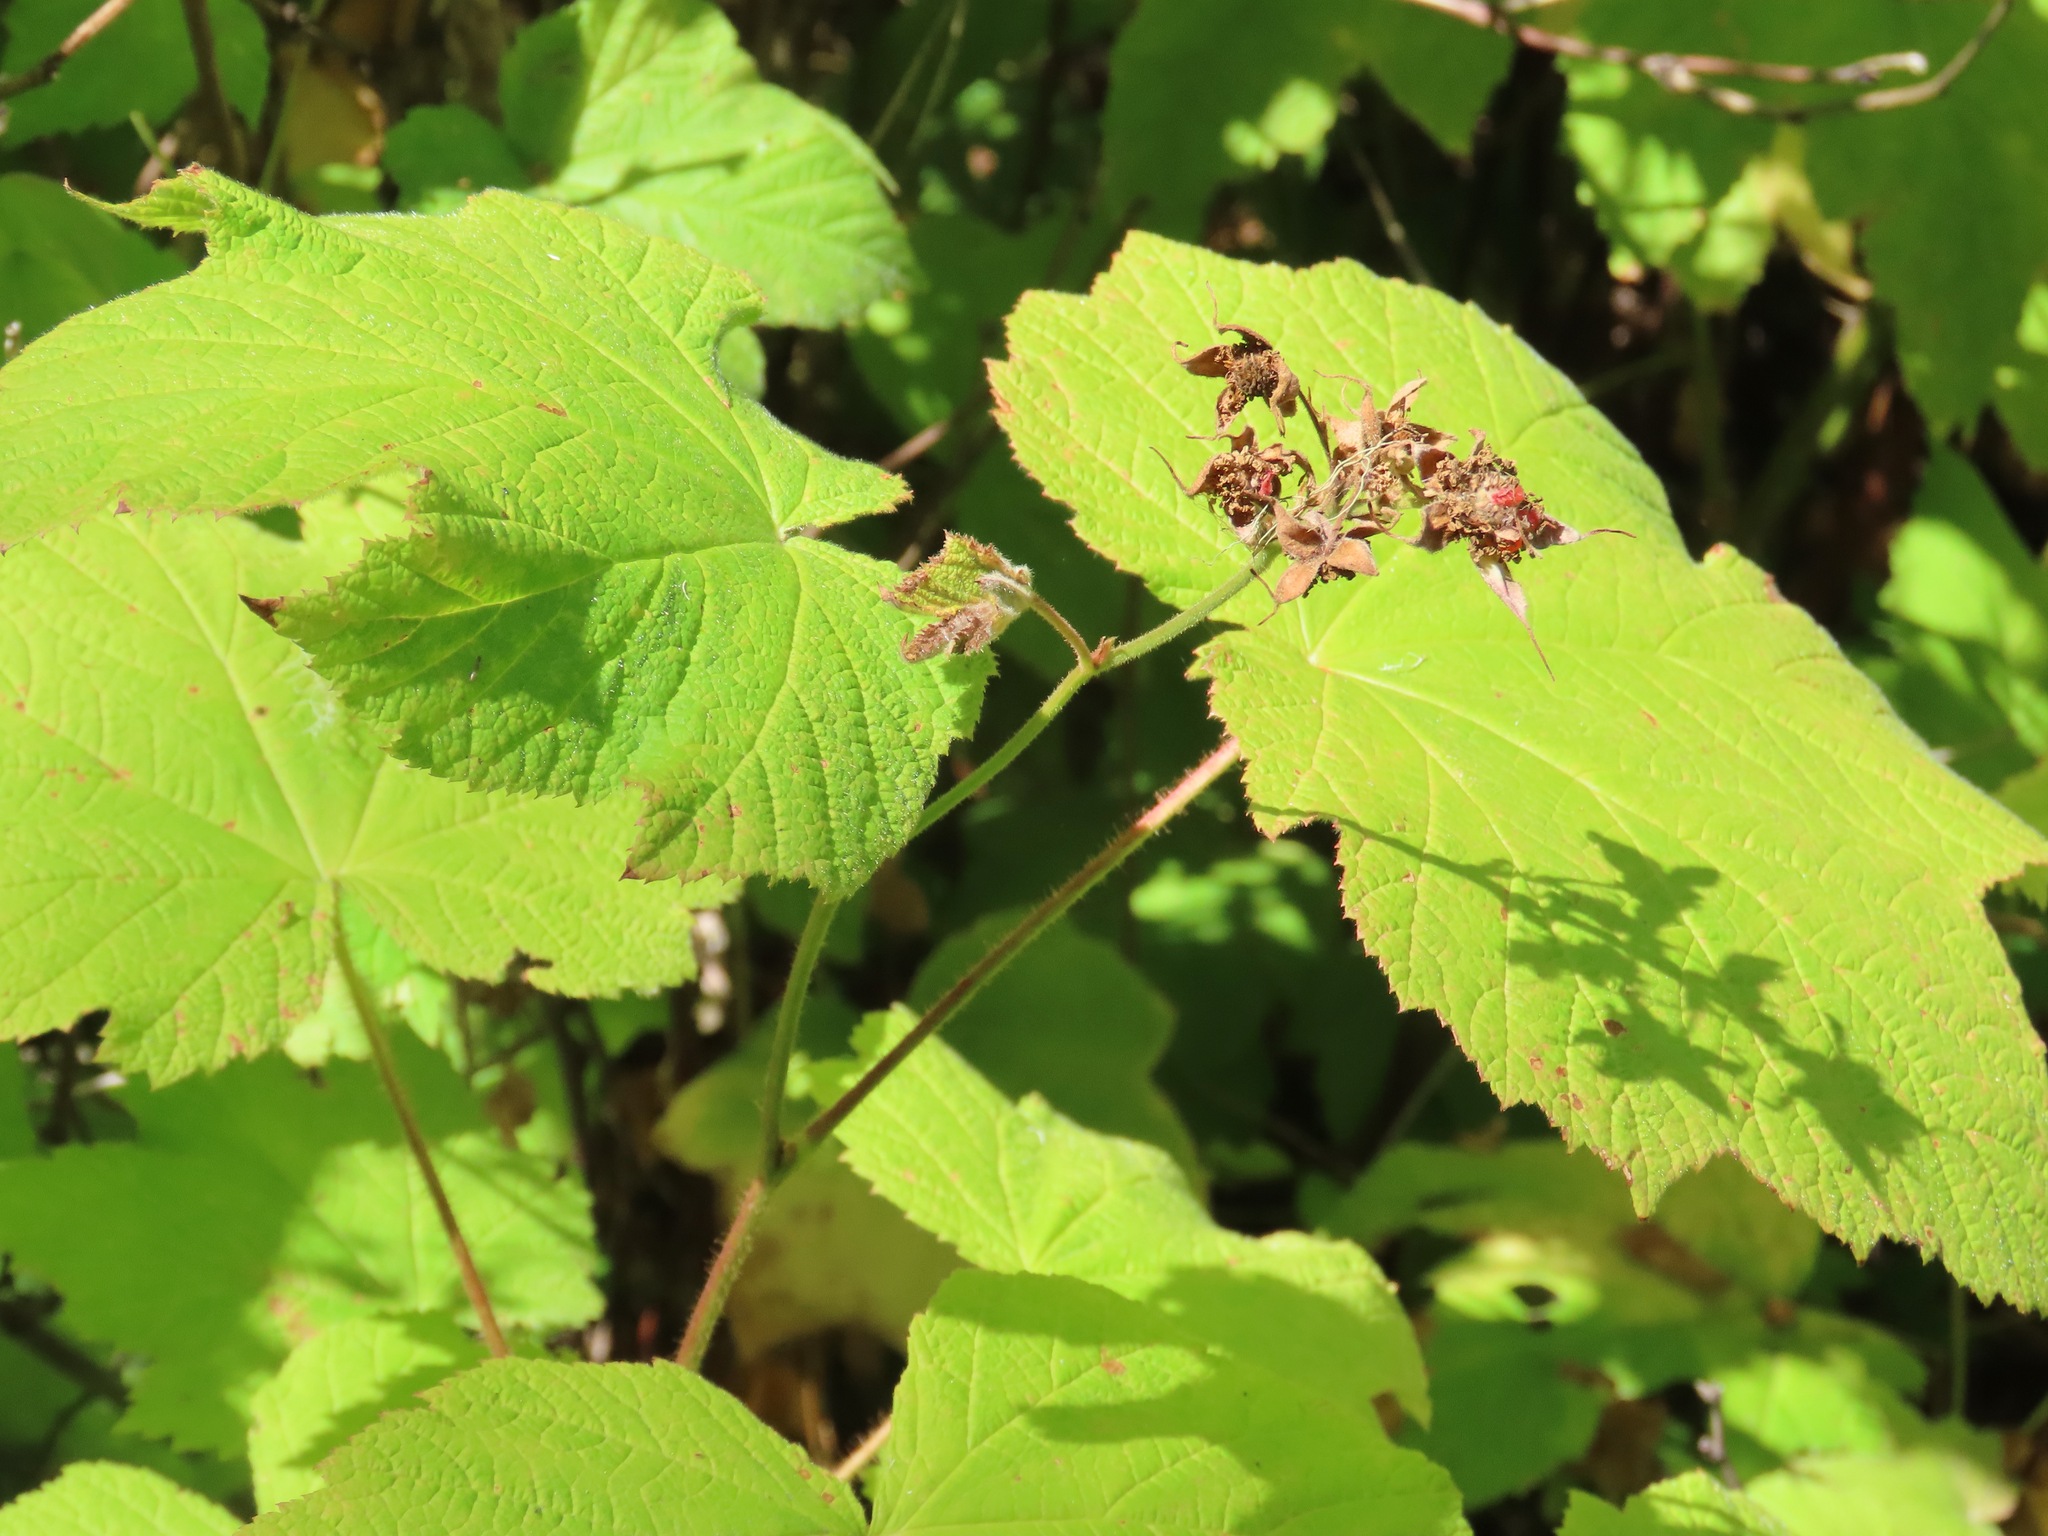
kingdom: Plantae
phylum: Tracheophyta
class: Magnoliopsida
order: Rosales
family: Rosaceae
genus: Rubus
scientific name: Rubus parviflorus
